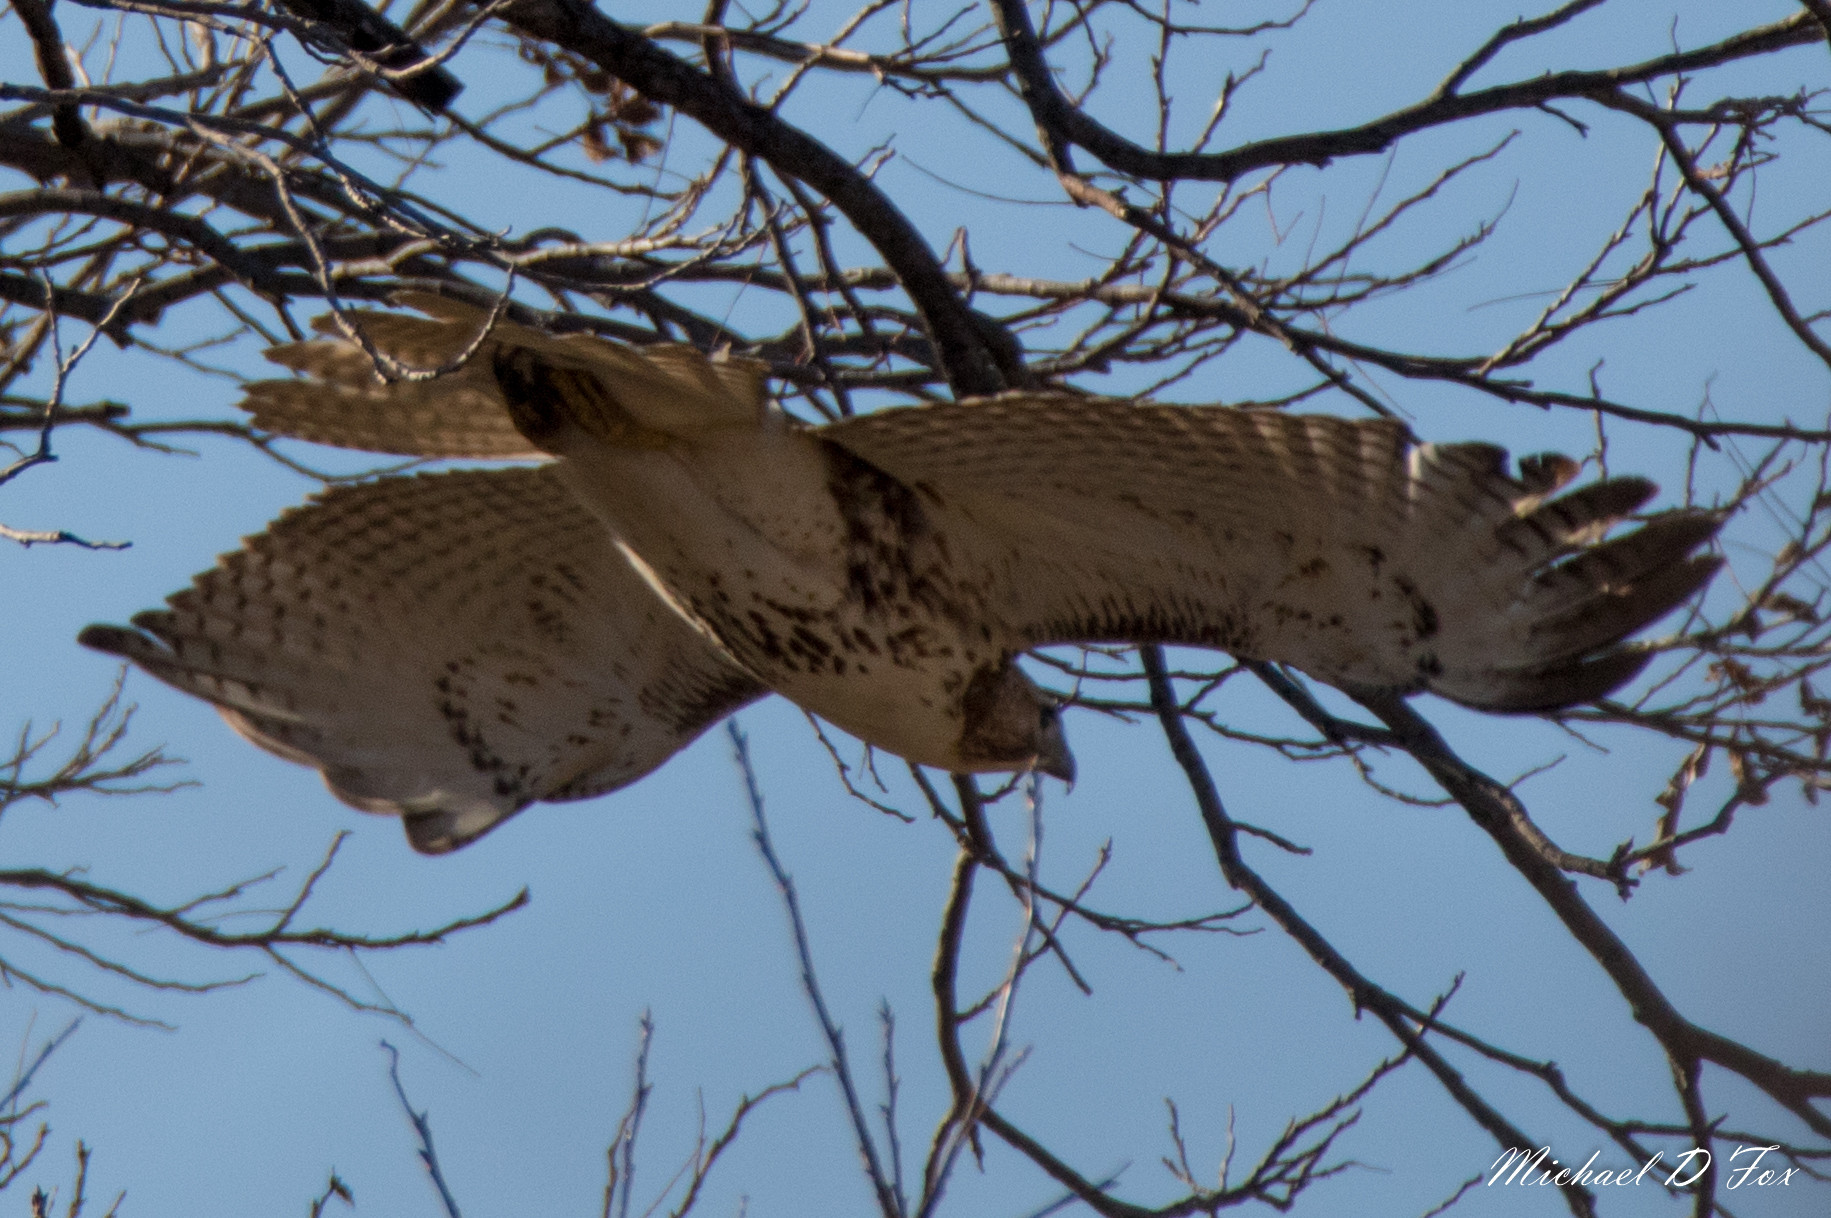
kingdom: Animalia
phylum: Chordata
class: Aves
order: Accipitriformes
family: Accipitridae
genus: Buteo
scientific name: Buteo jamaicensis
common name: Red-tailed hawk
